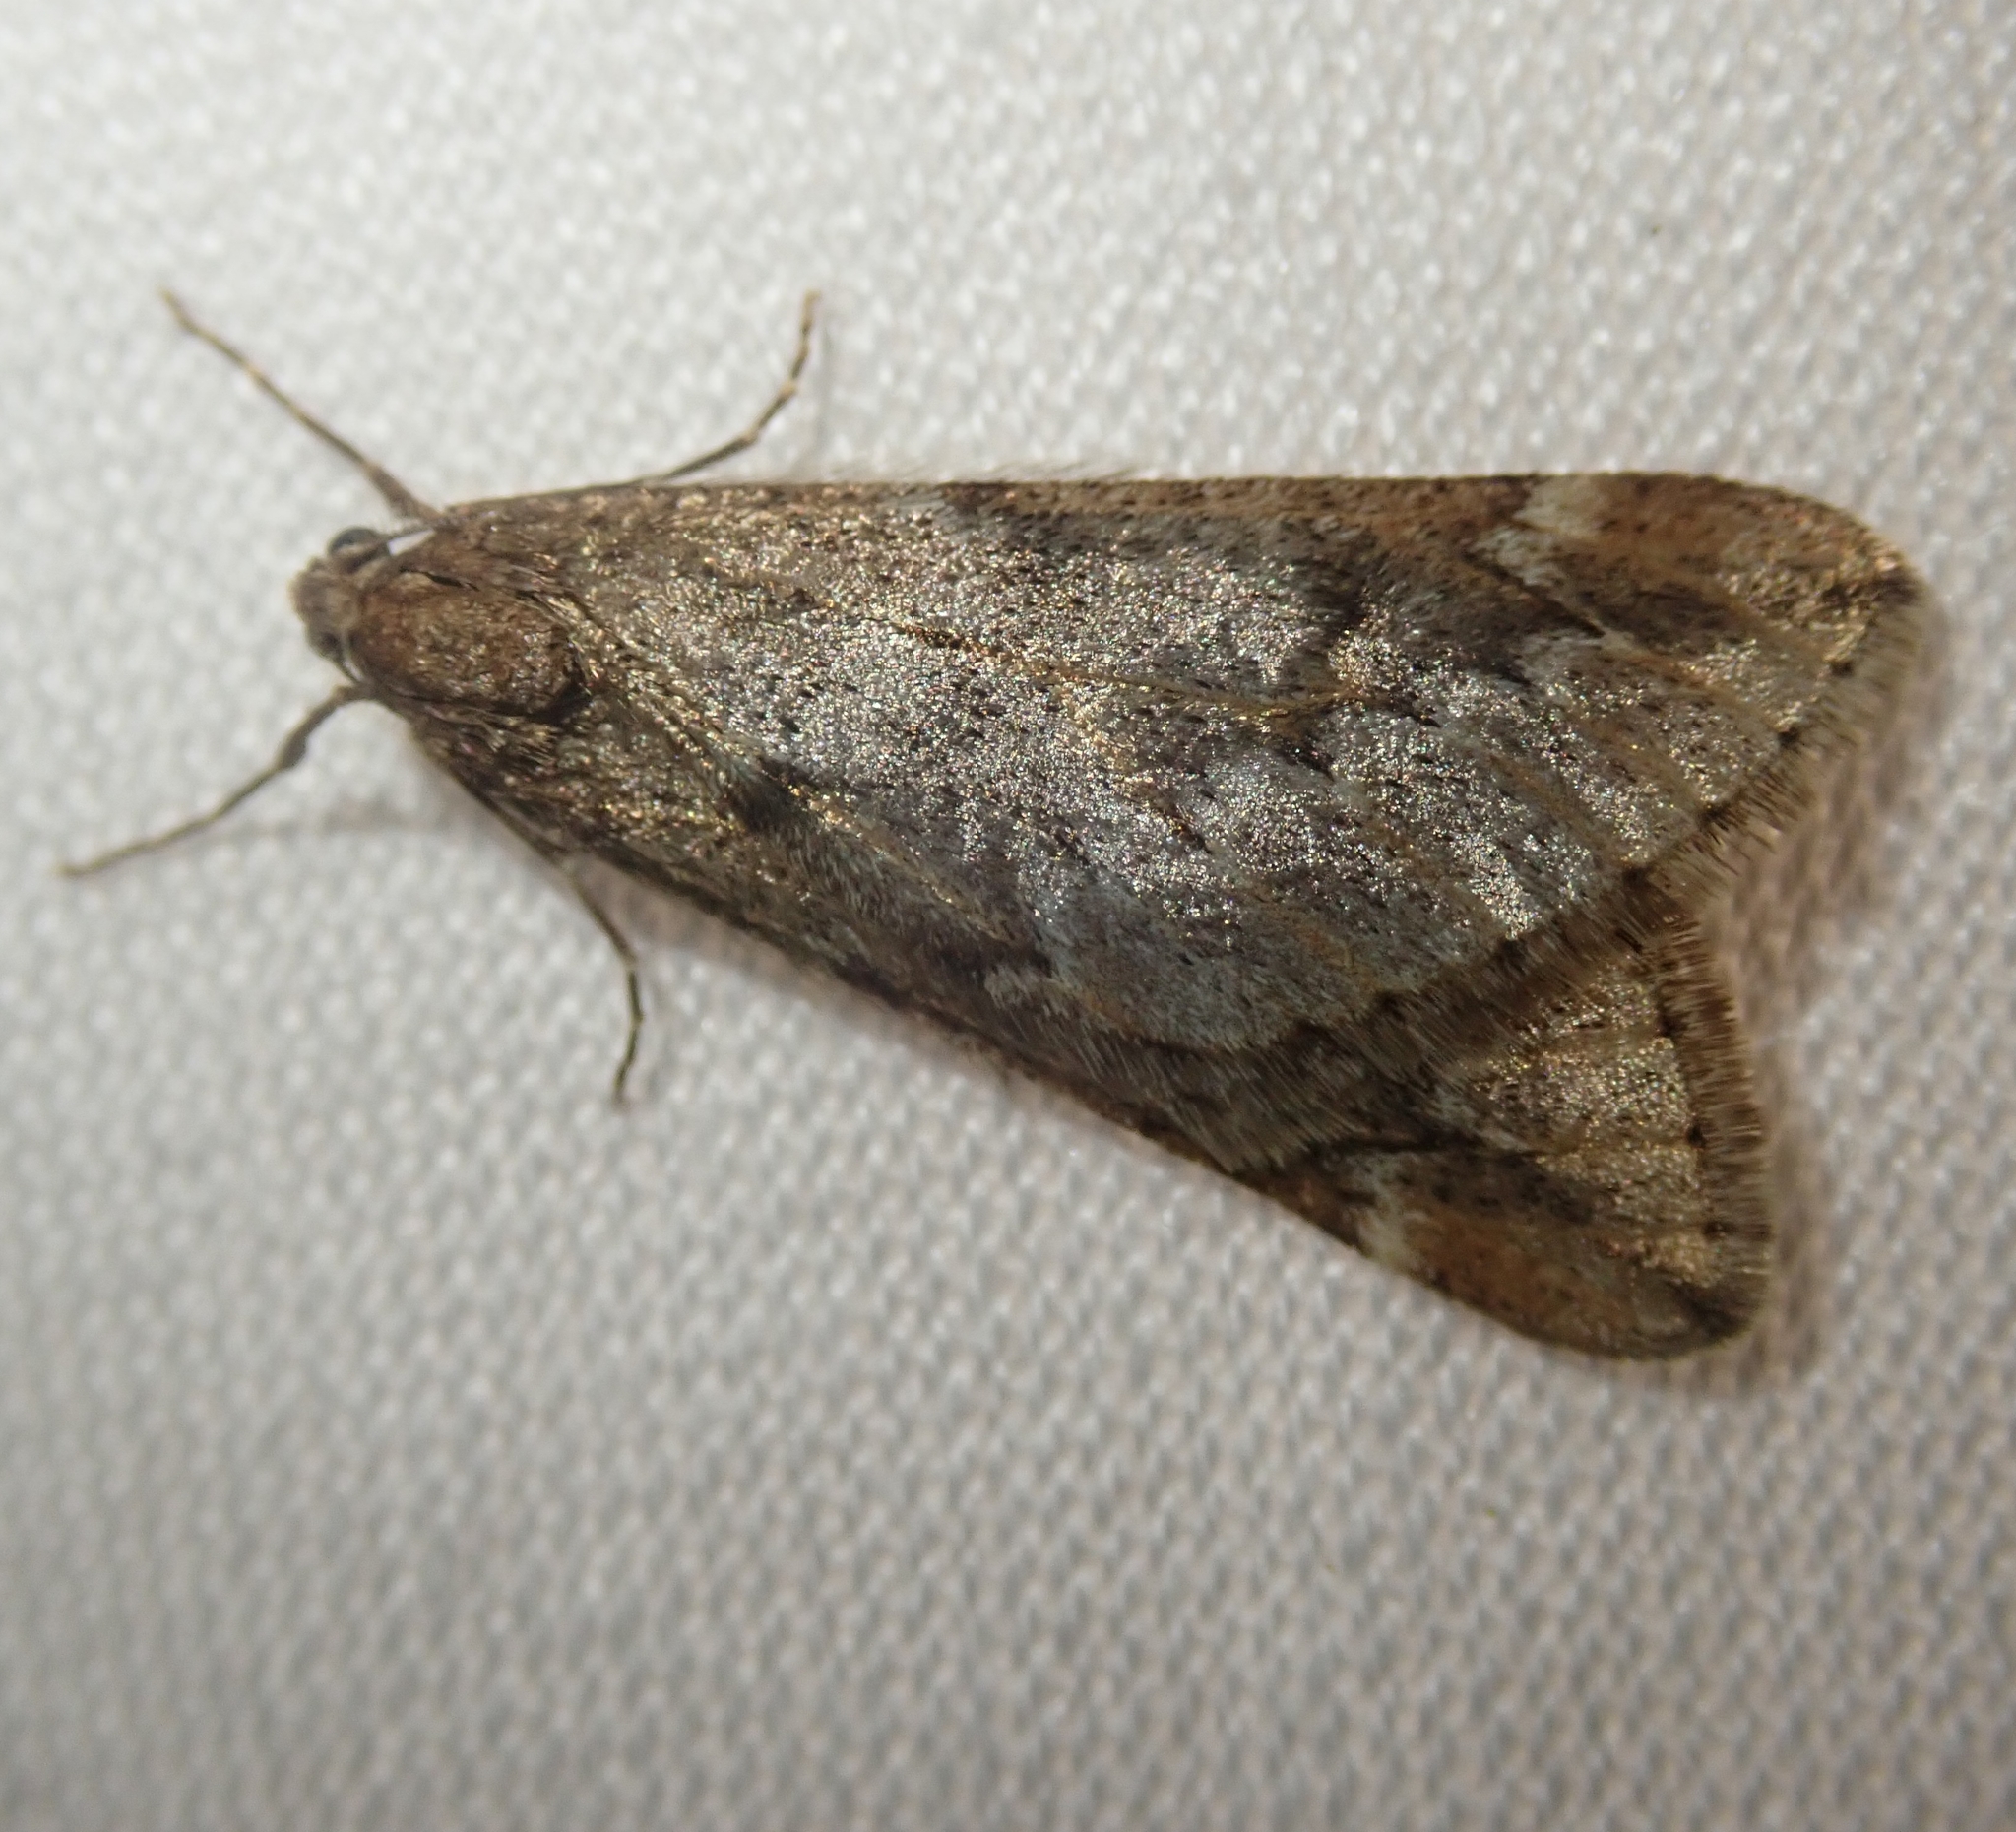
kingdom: Animalia
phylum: Arthropoda
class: Insecta
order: Lepidoptera
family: Geometridae
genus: Alsophila
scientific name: Alsophila aescularia
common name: March moth
